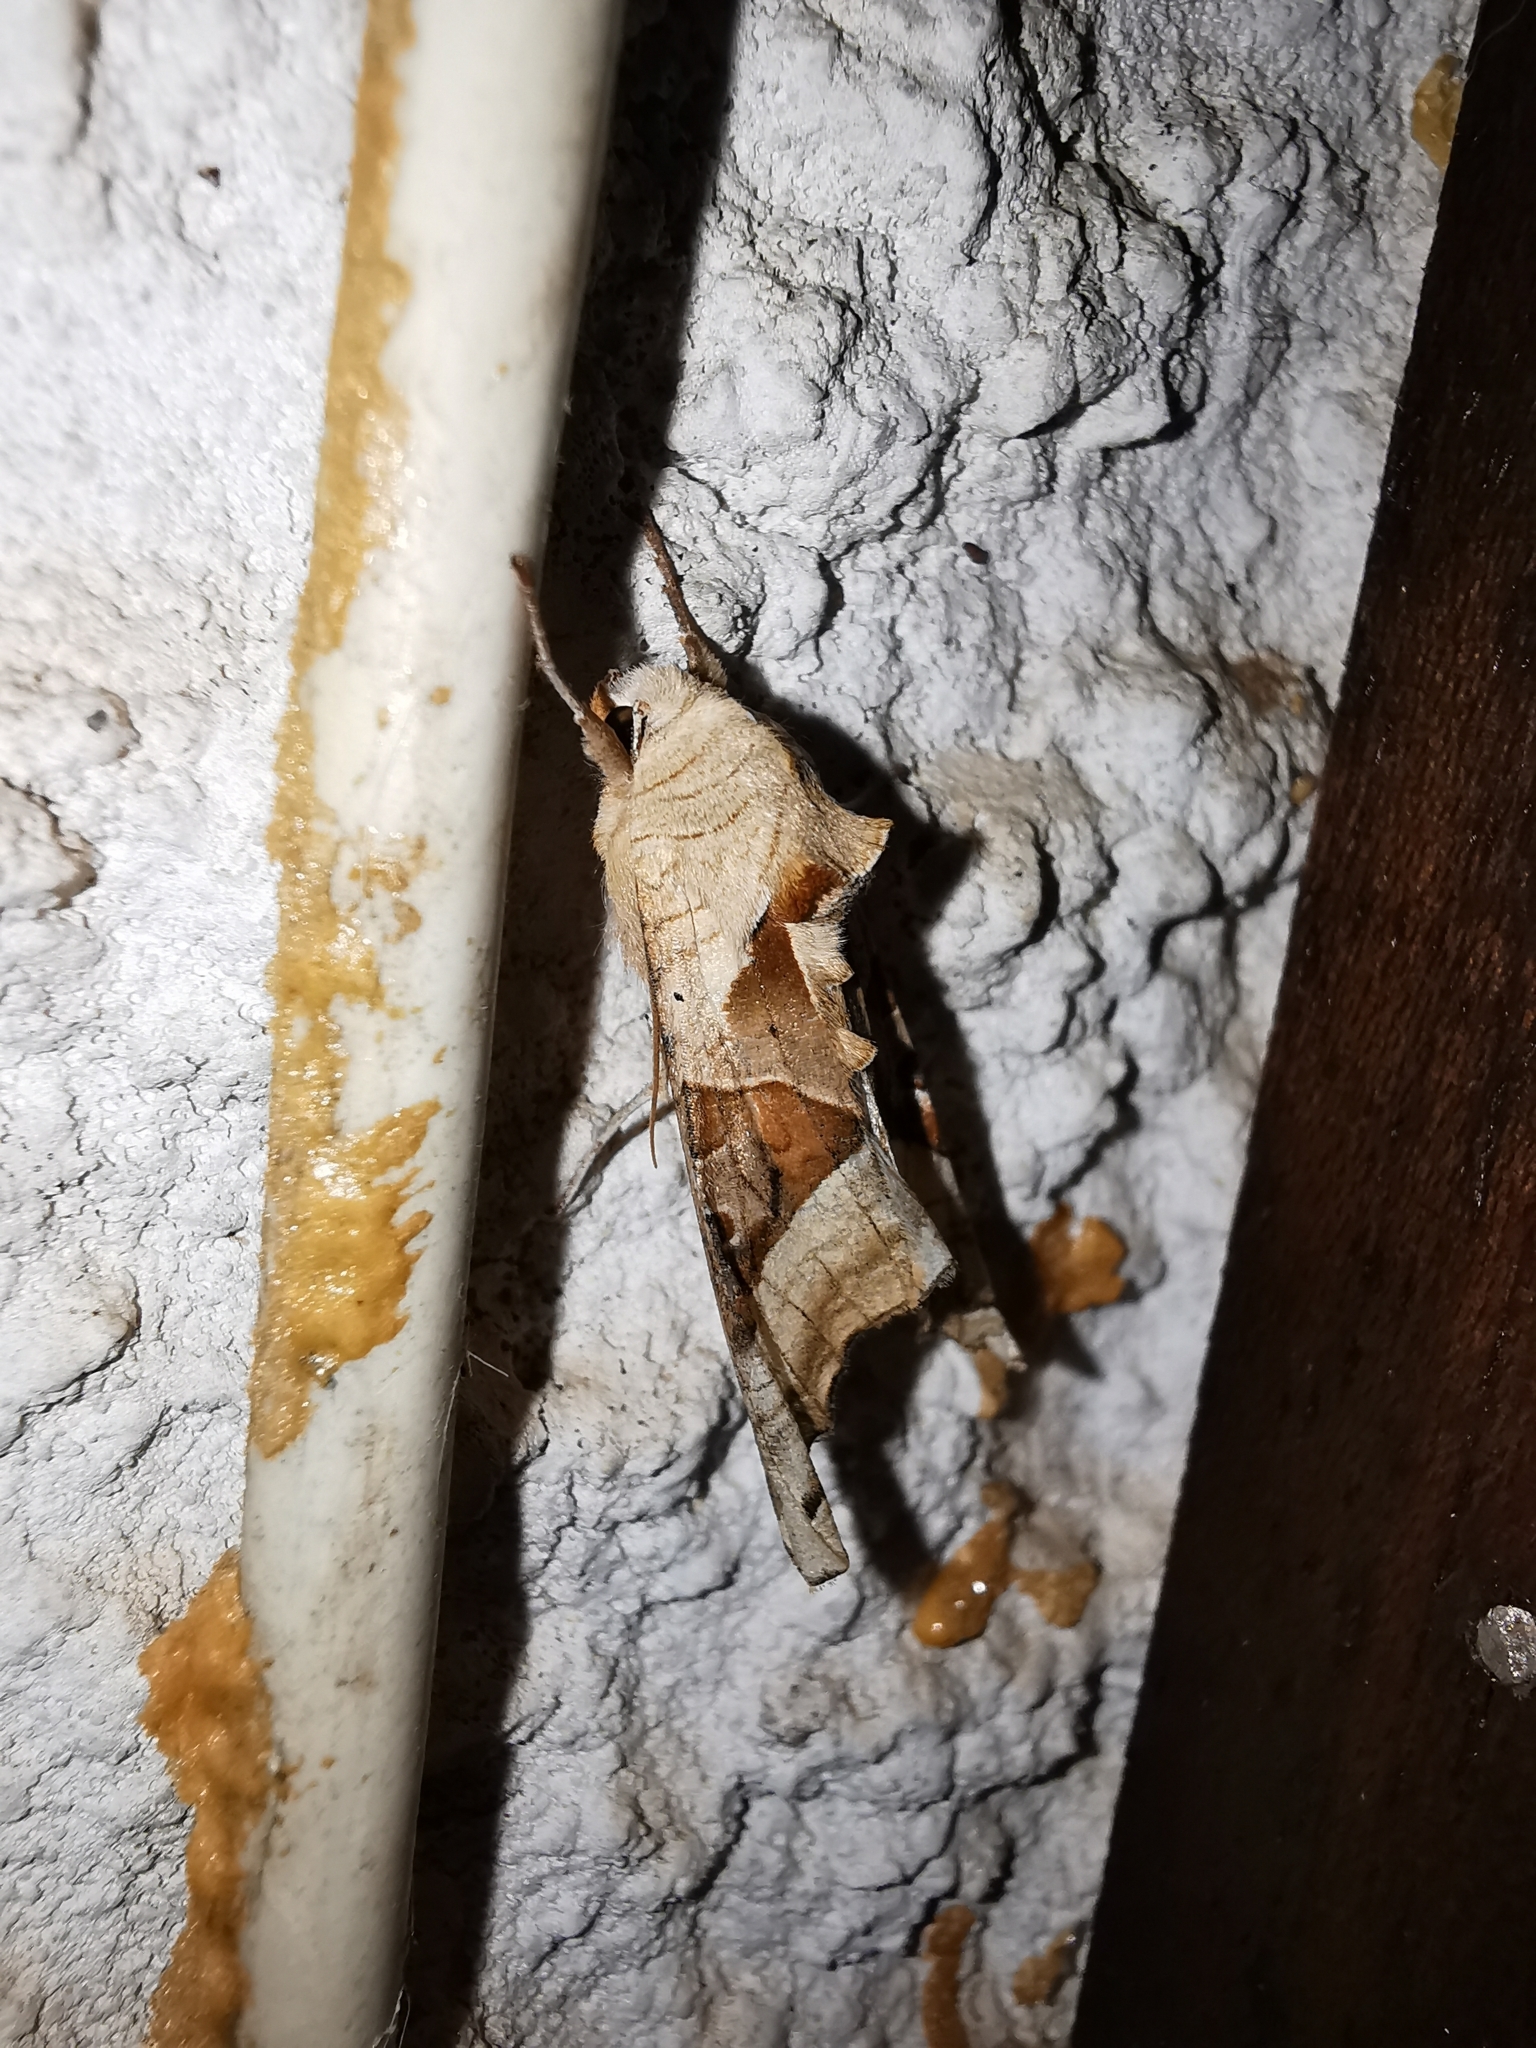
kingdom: Animalia
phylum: Arthropoda
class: Insecta
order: Lepidoptera
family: Noctuidae
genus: Phlogophora
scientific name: Phlogophora meticulosa
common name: Angle shades
